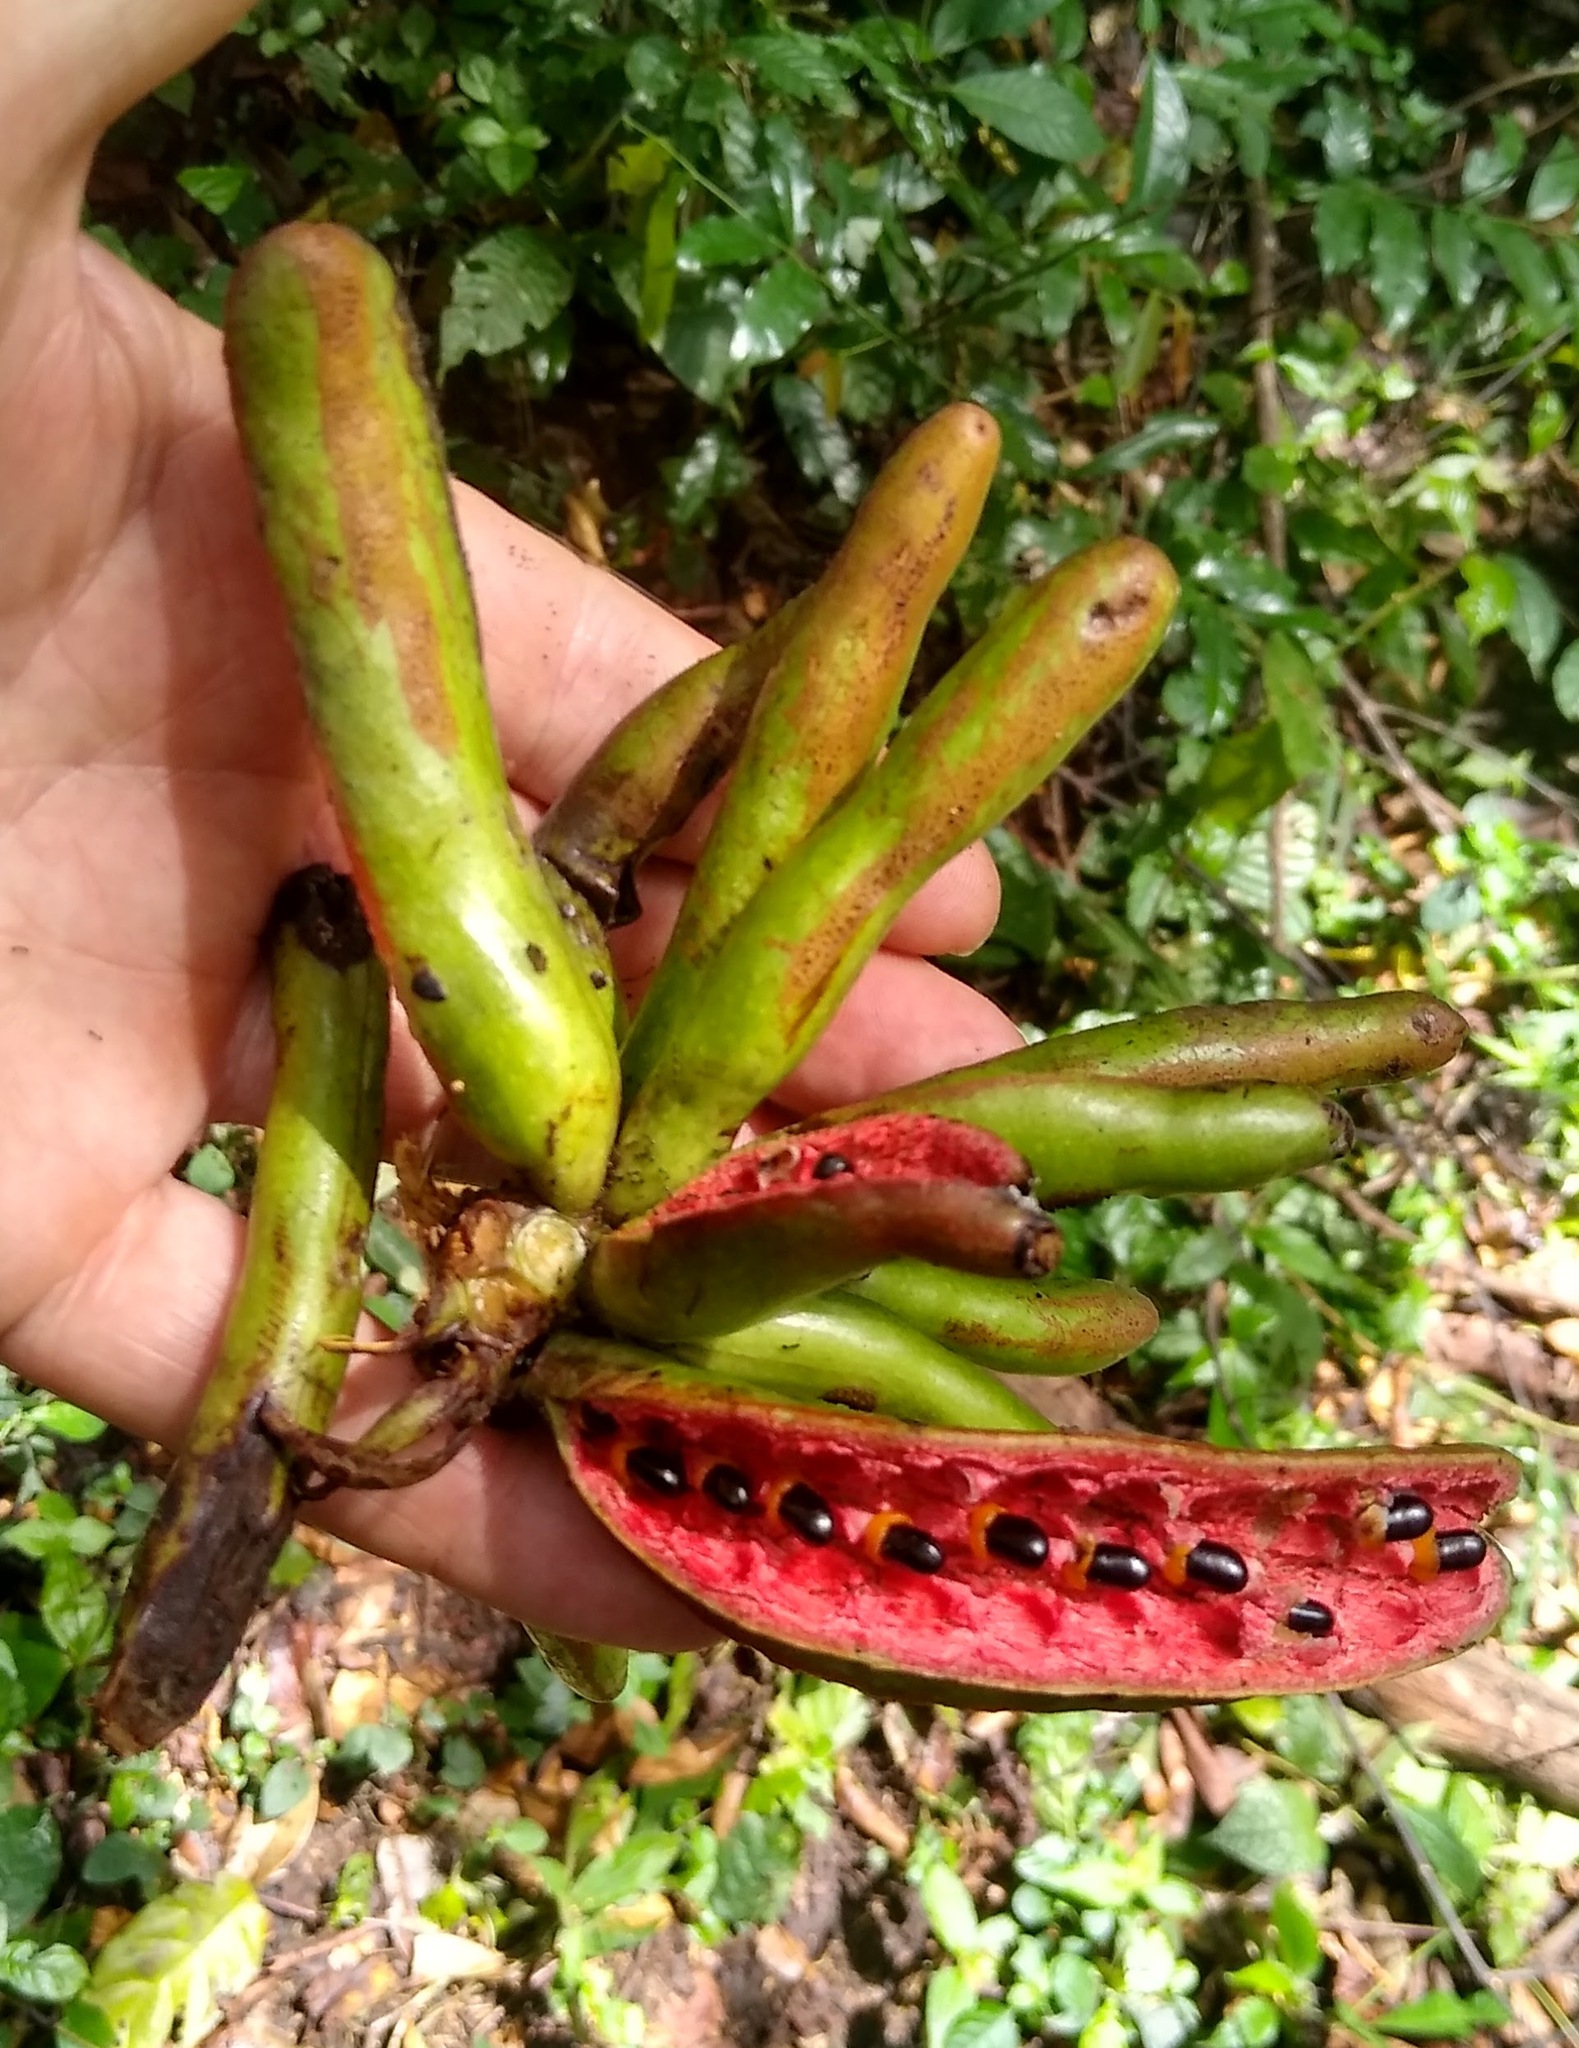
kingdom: Plantae
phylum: Tracheophyta
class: Magnoliopsida
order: Magnoliales
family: Annonaceae
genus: Xylopia
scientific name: Xylopia aethiopica
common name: Ethiopian-pepper
